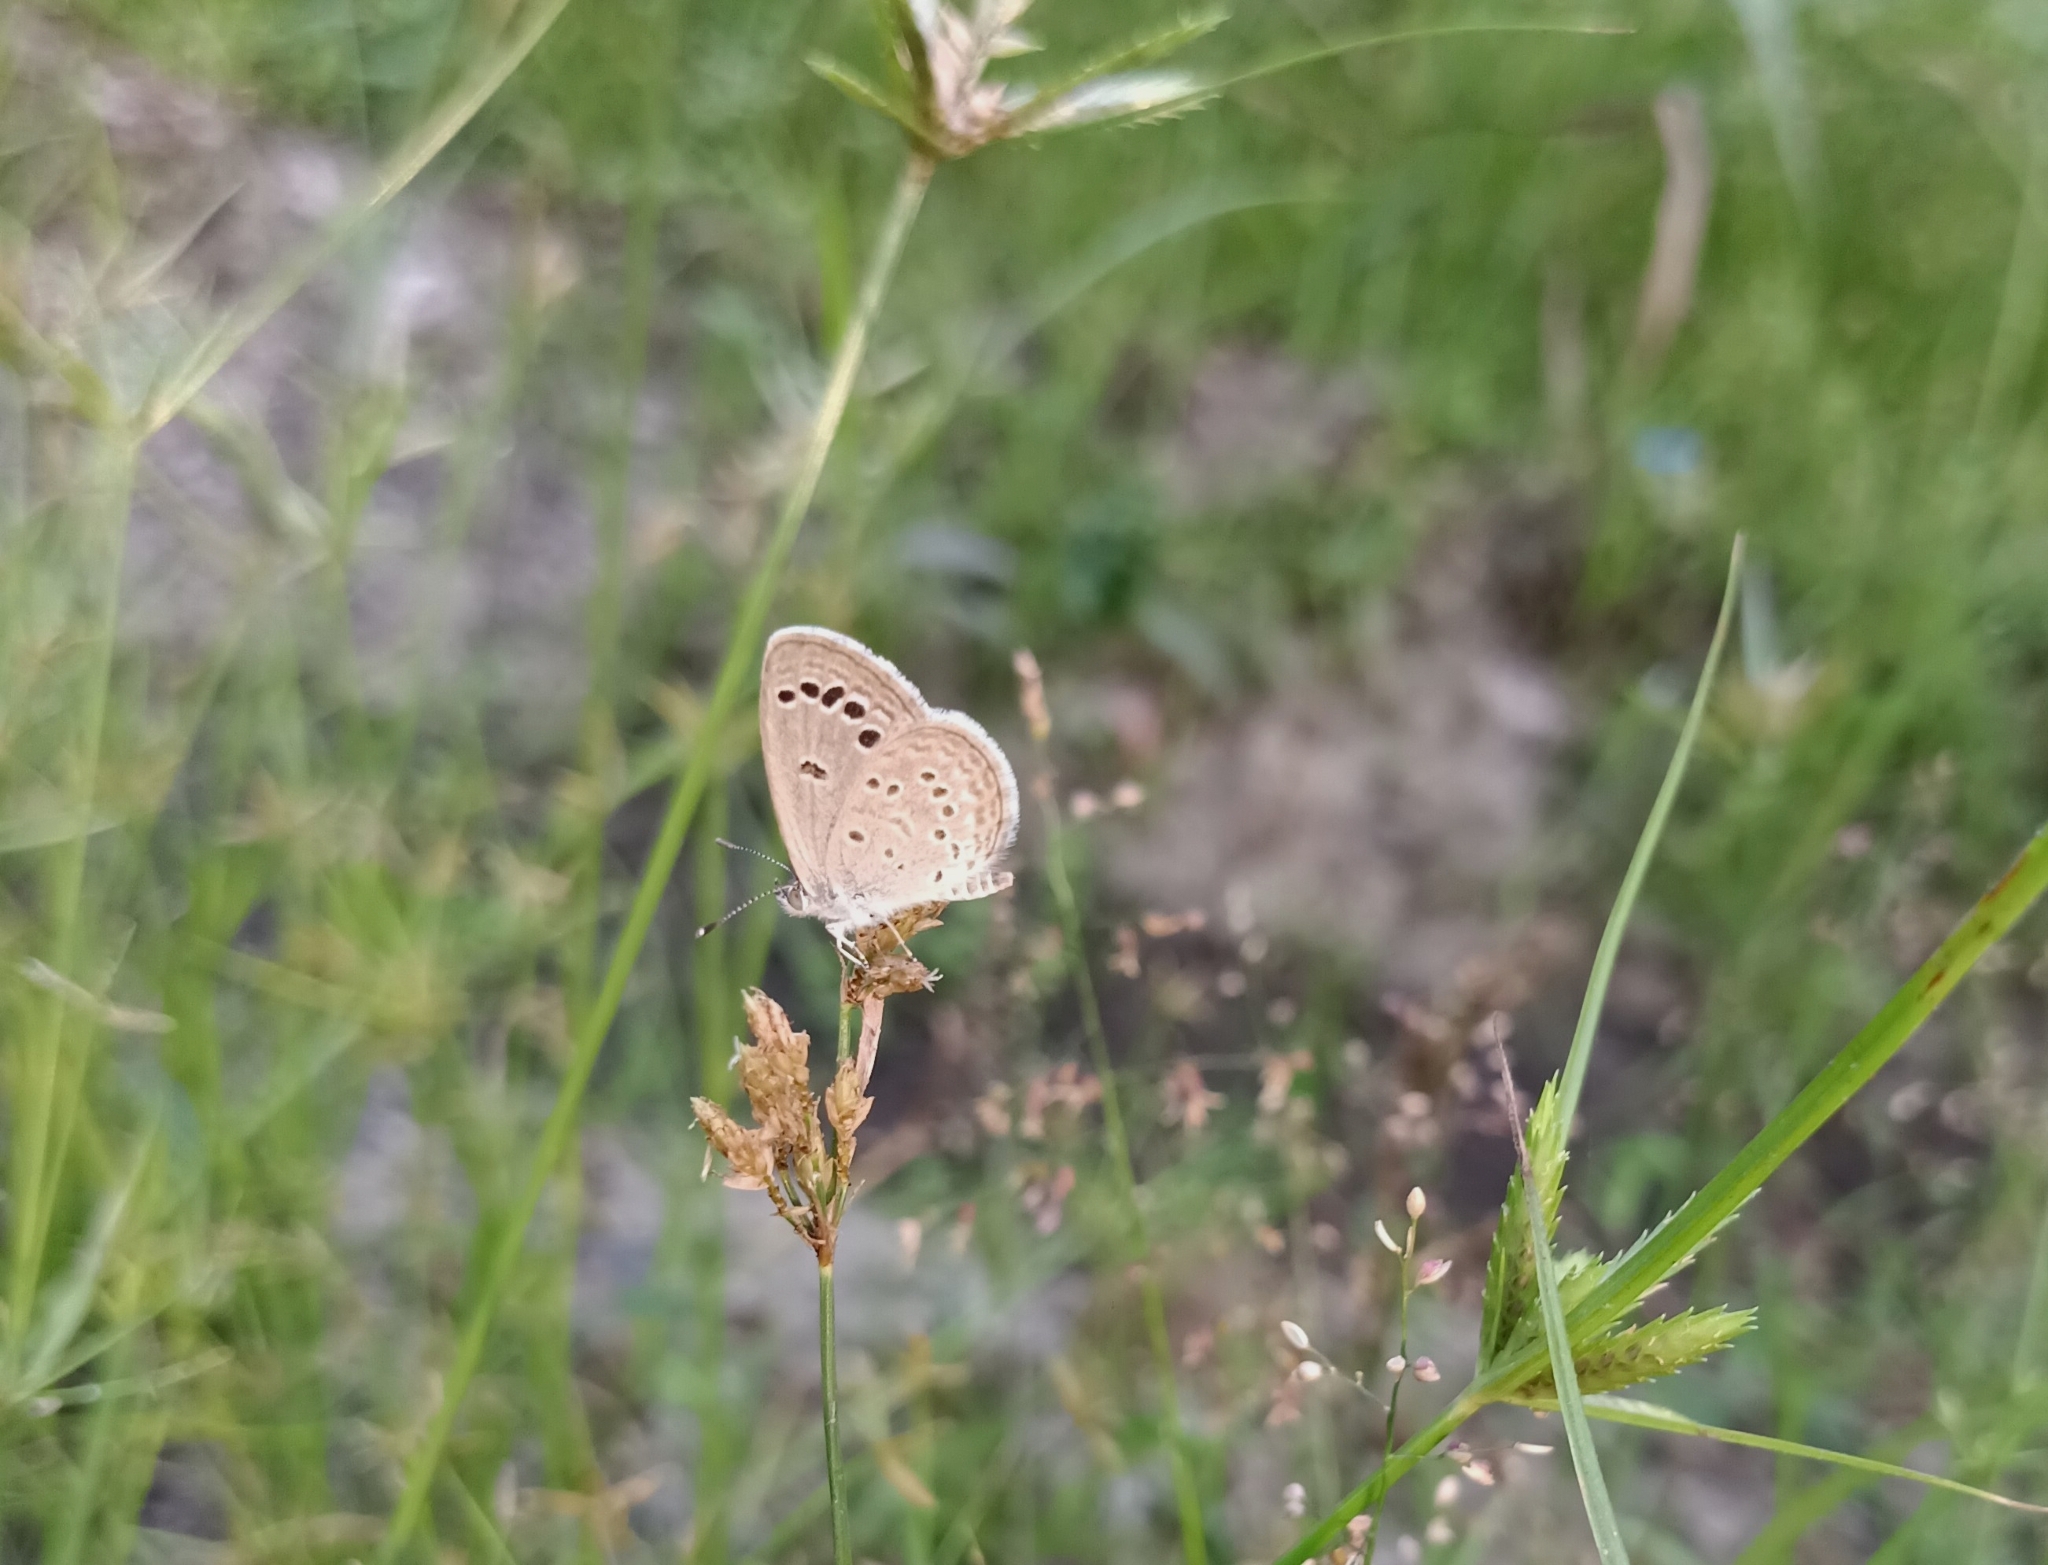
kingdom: Animalia
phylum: Arthropoda
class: Insecta
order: Lepidoptera
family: Lycaenidae
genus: Zizina
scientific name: Zizina otis
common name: Lesser grass blue
